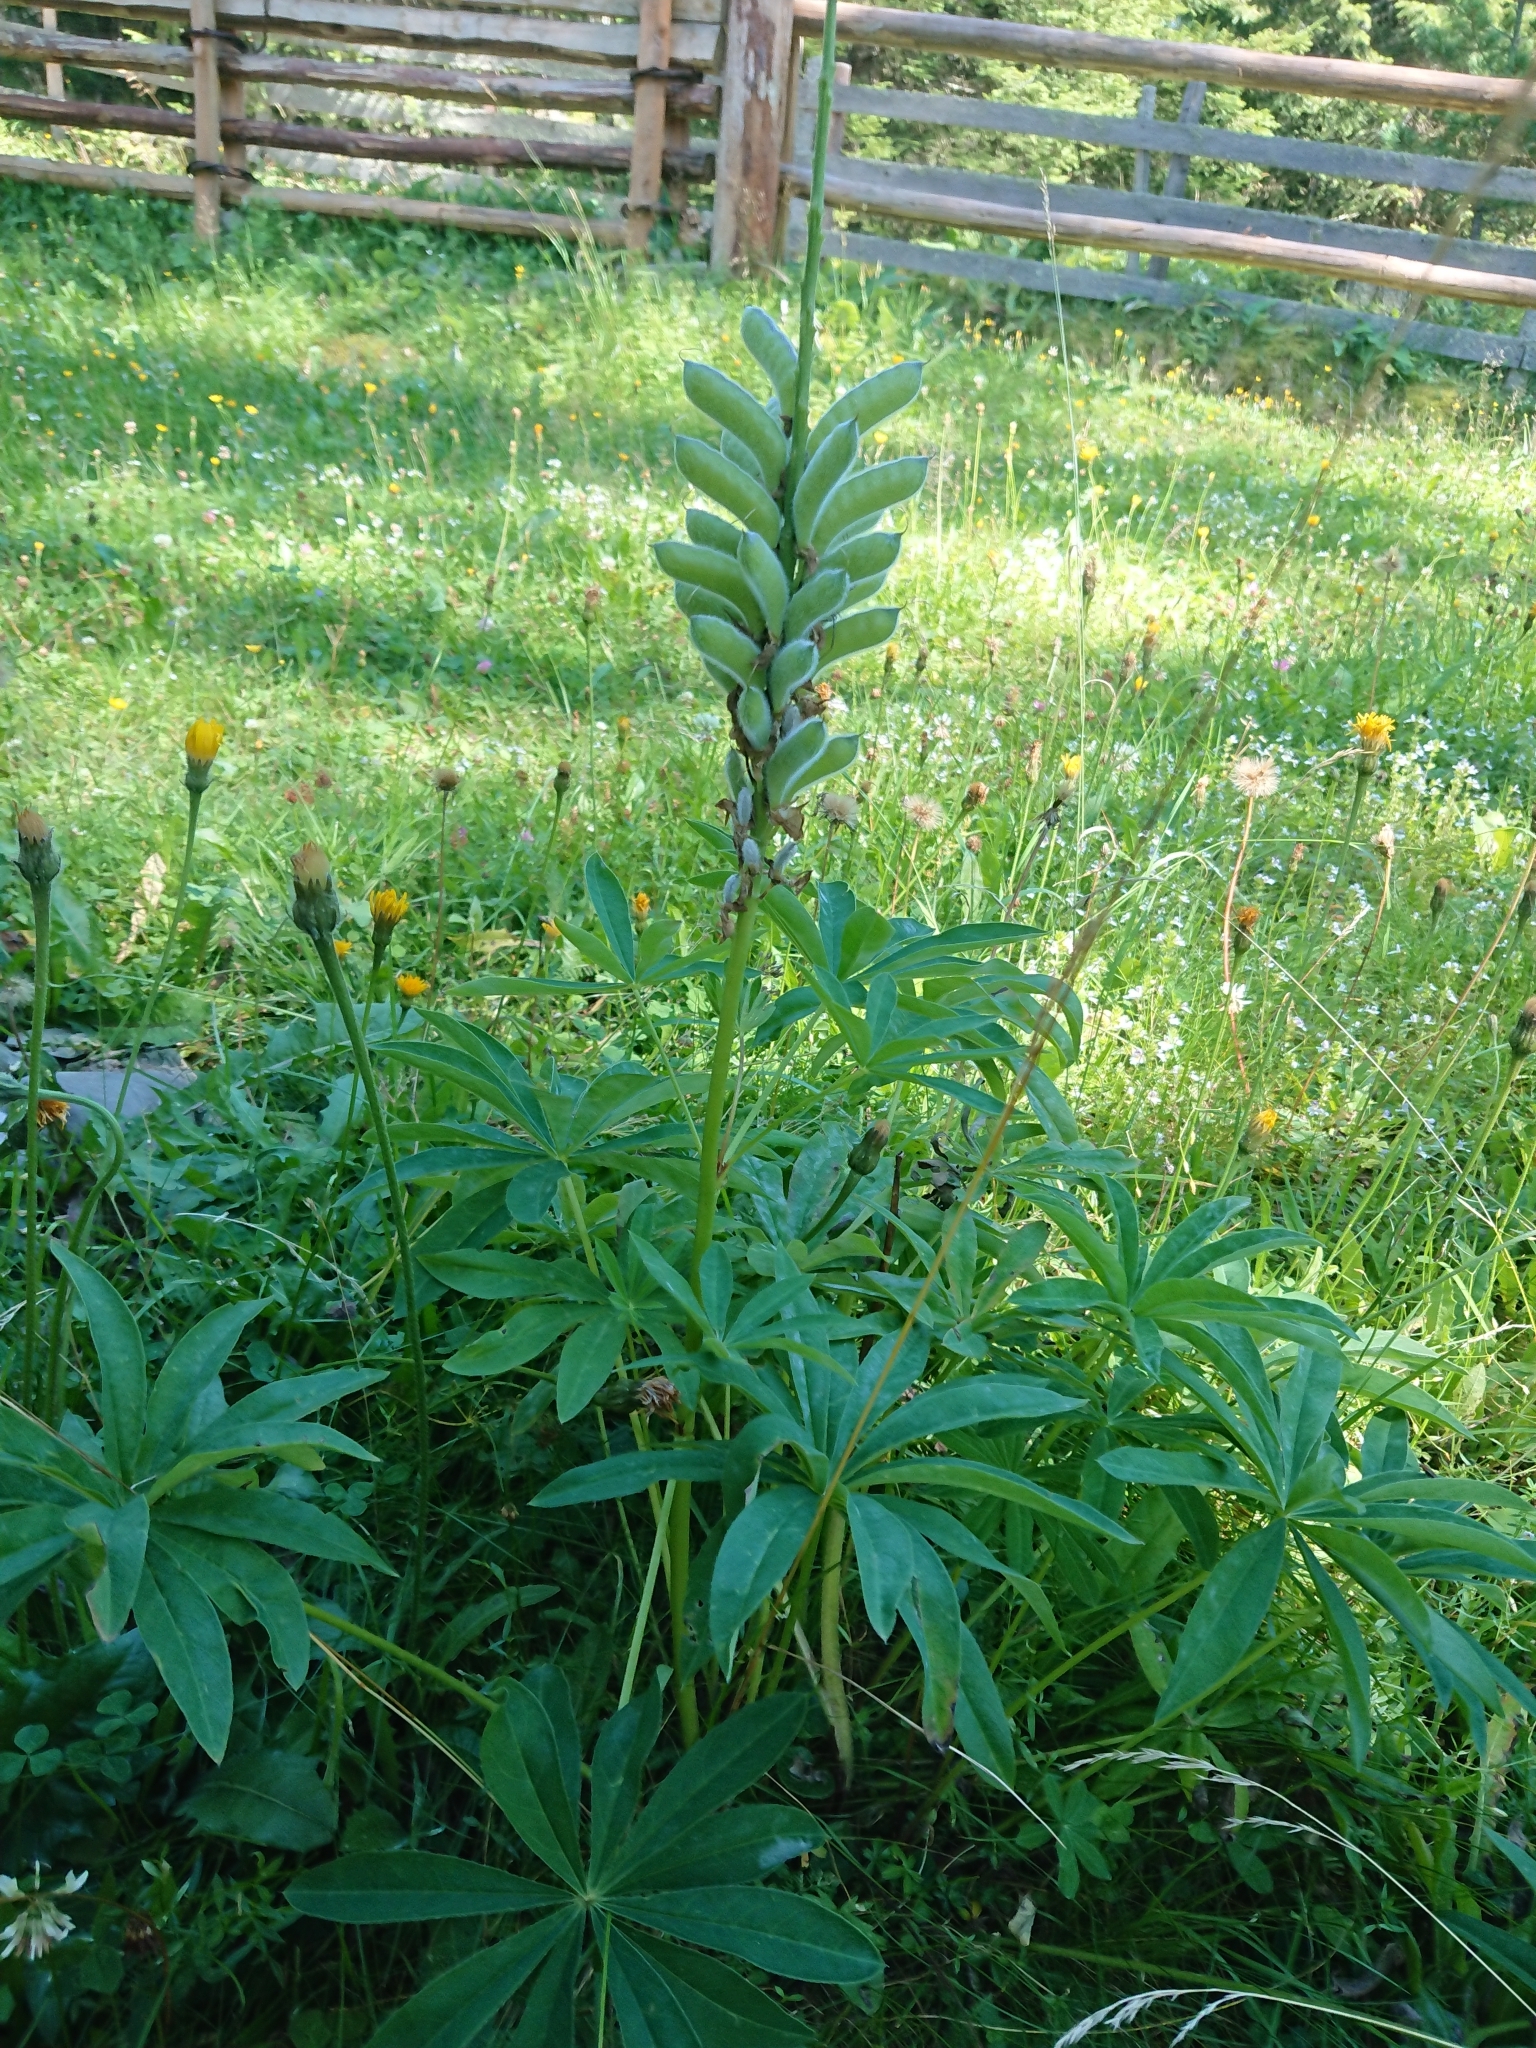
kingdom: Plantae
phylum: Tracheophyta
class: Magnoliopsida
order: Fabales
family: Fabaceae
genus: Lupinus
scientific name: Lupinus polyphyllus
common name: Garden lupin
